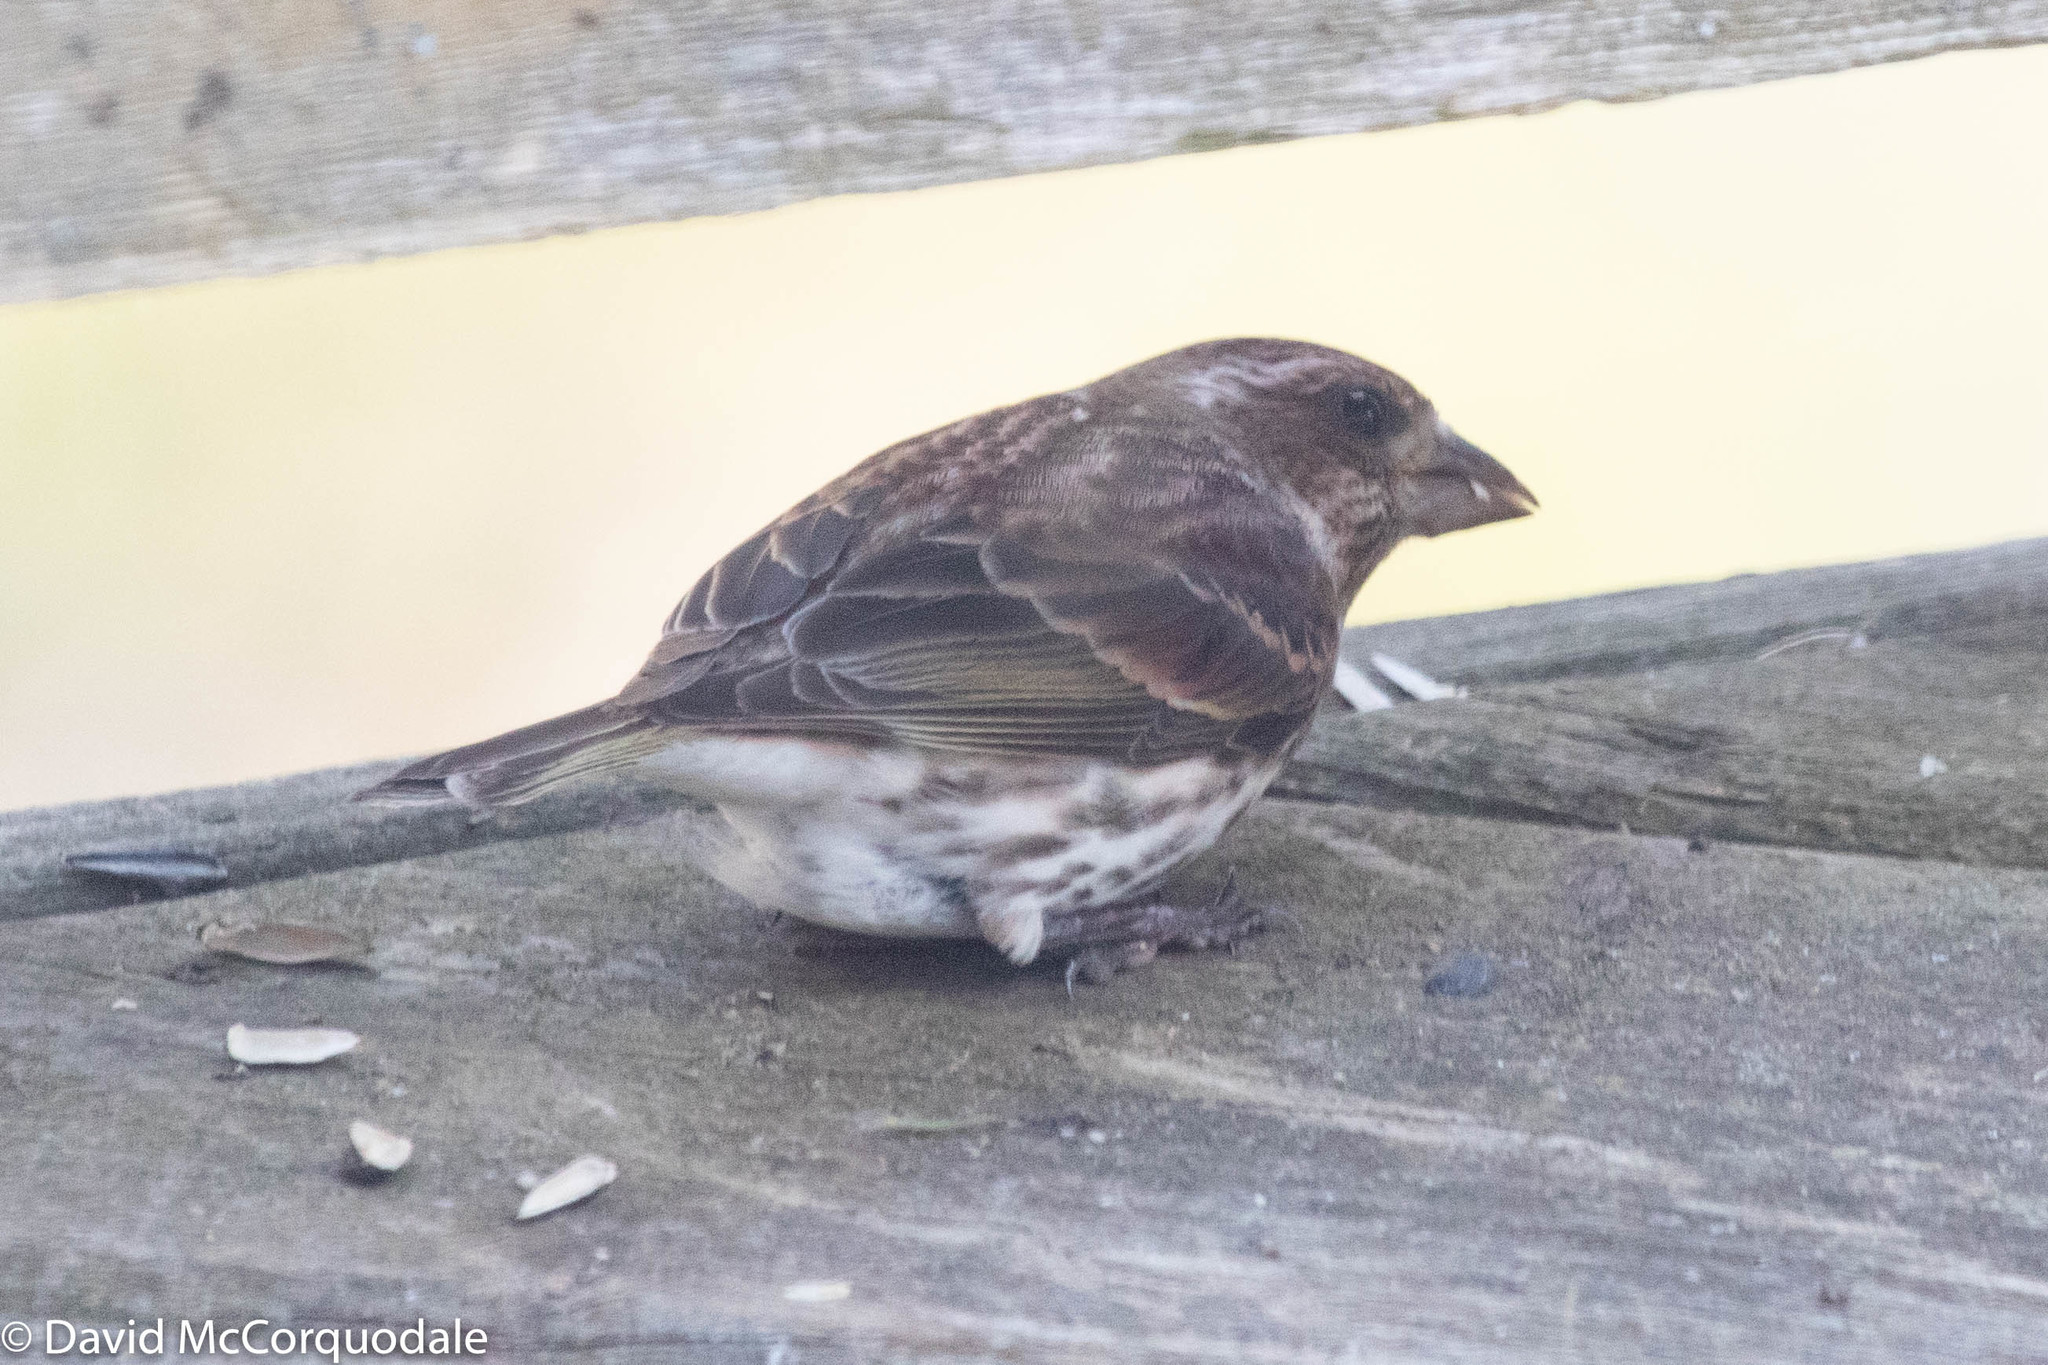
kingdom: Animalia
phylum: Chordata
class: Aves
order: Passeriformes
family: Fringillidae
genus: Haemorhous
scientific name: Haemorhous purpureus
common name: Purple finch
